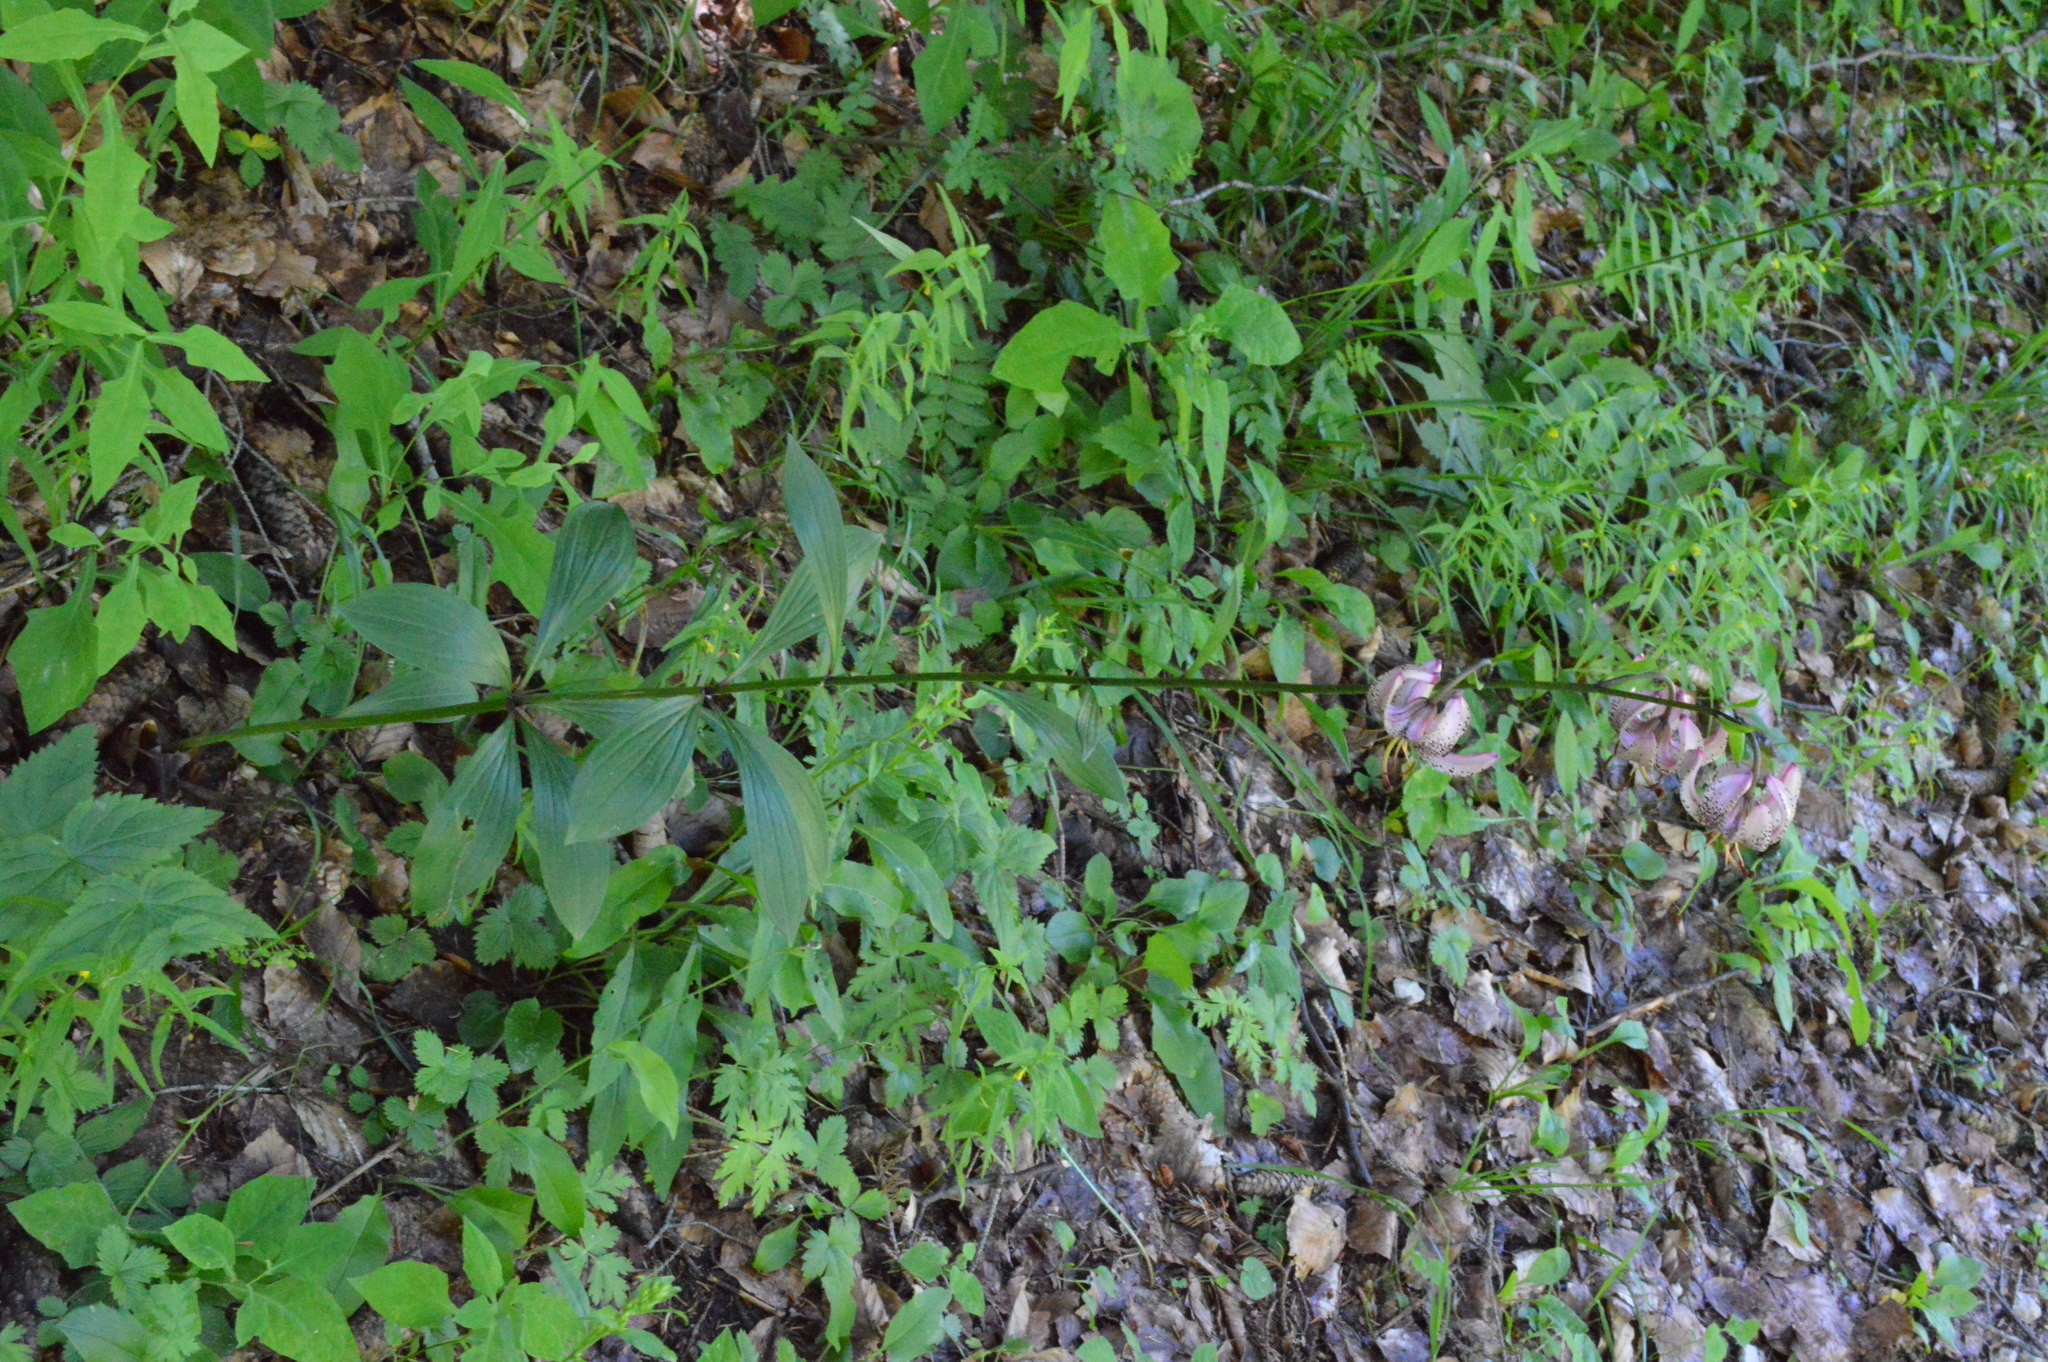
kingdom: Plantae
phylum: Tracheophyta
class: Liliopsida
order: Liliales
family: Liliaceae
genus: Lilium
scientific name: Lilium martagon
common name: Martagon lily
